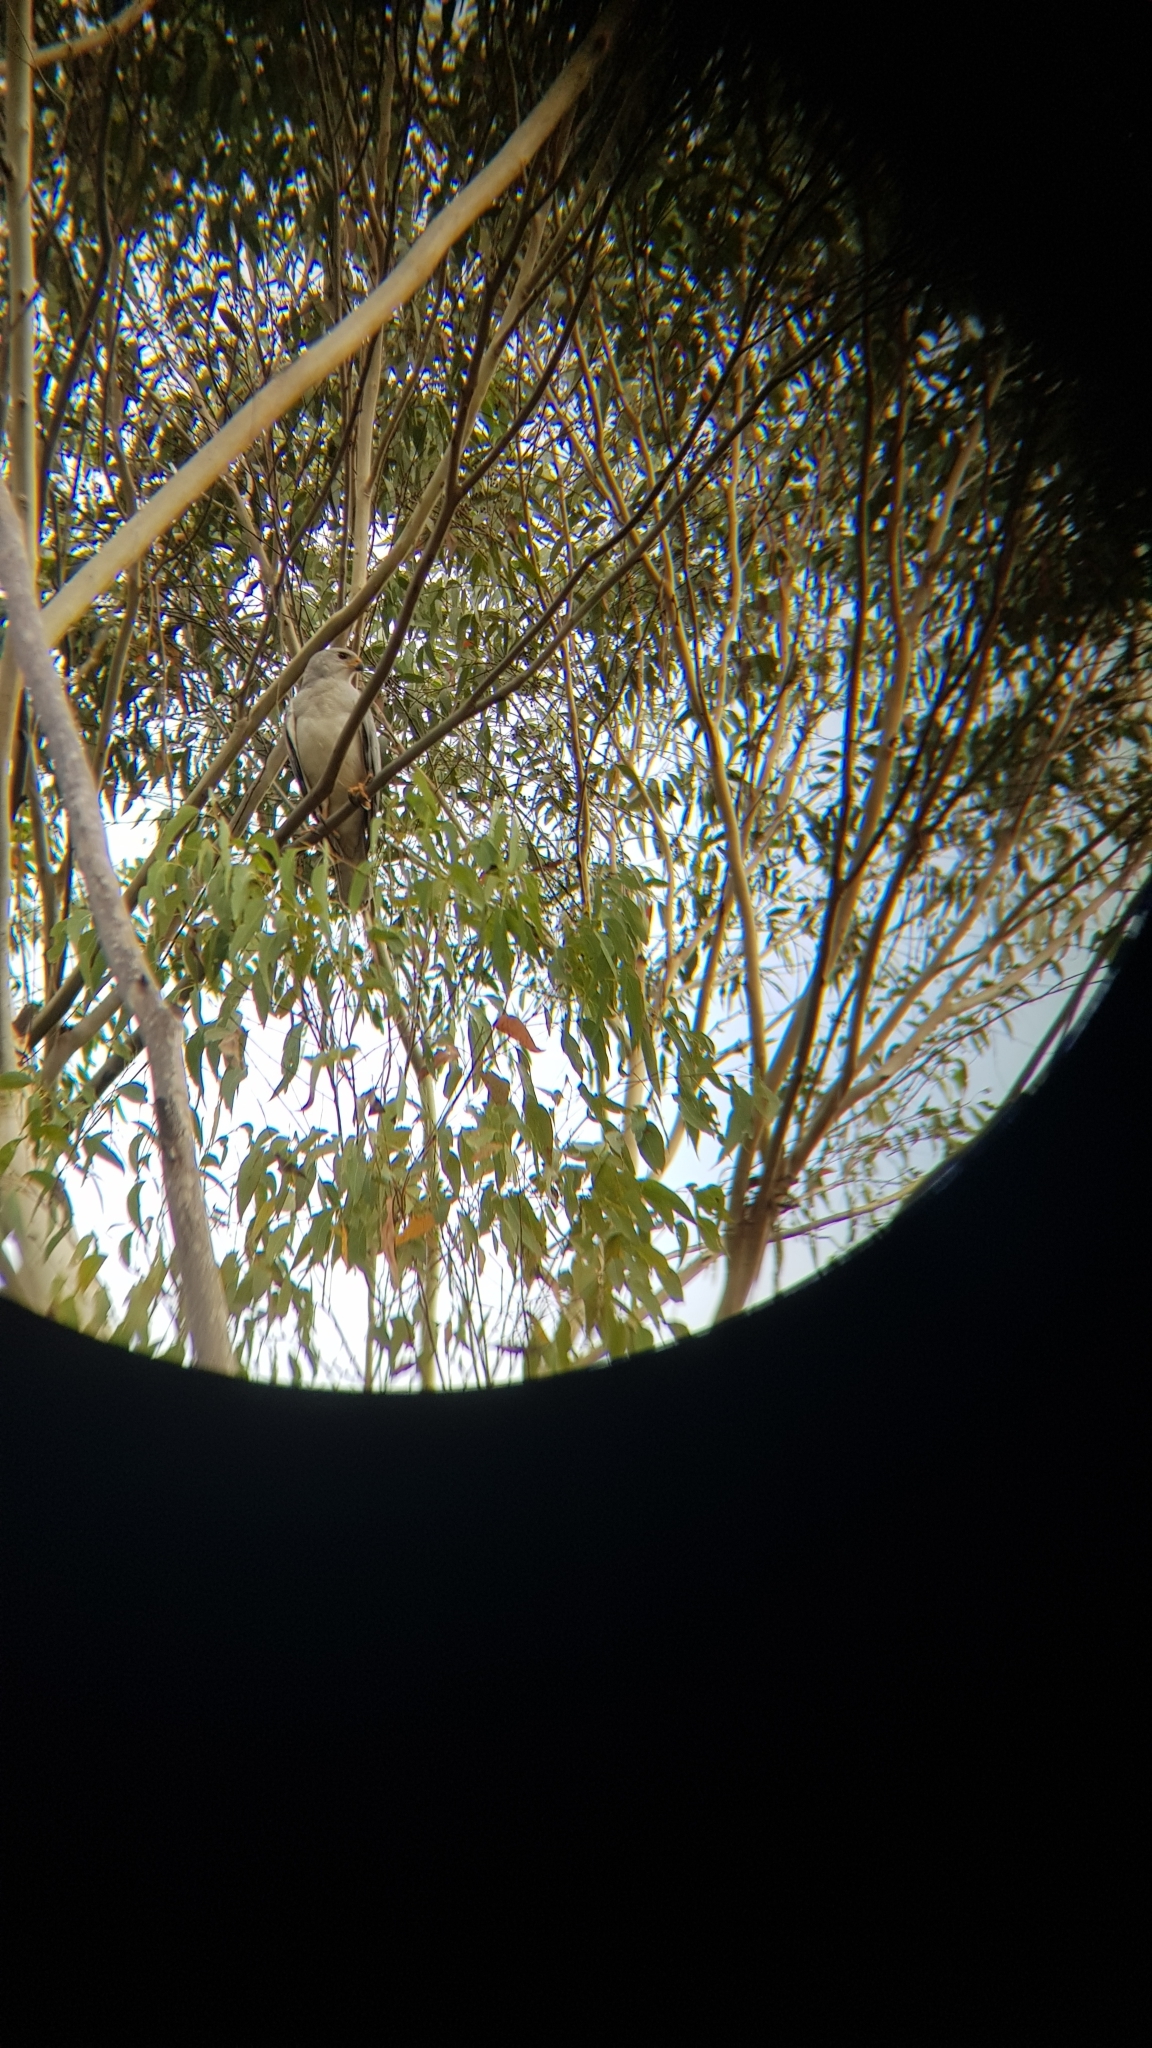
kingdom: Animalia
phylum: Chordata
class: Aves
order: Accipitriformes
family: Accipitridae
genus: Accipiter
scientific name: Accipiter novaehollandiae
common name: Grey goshawk
